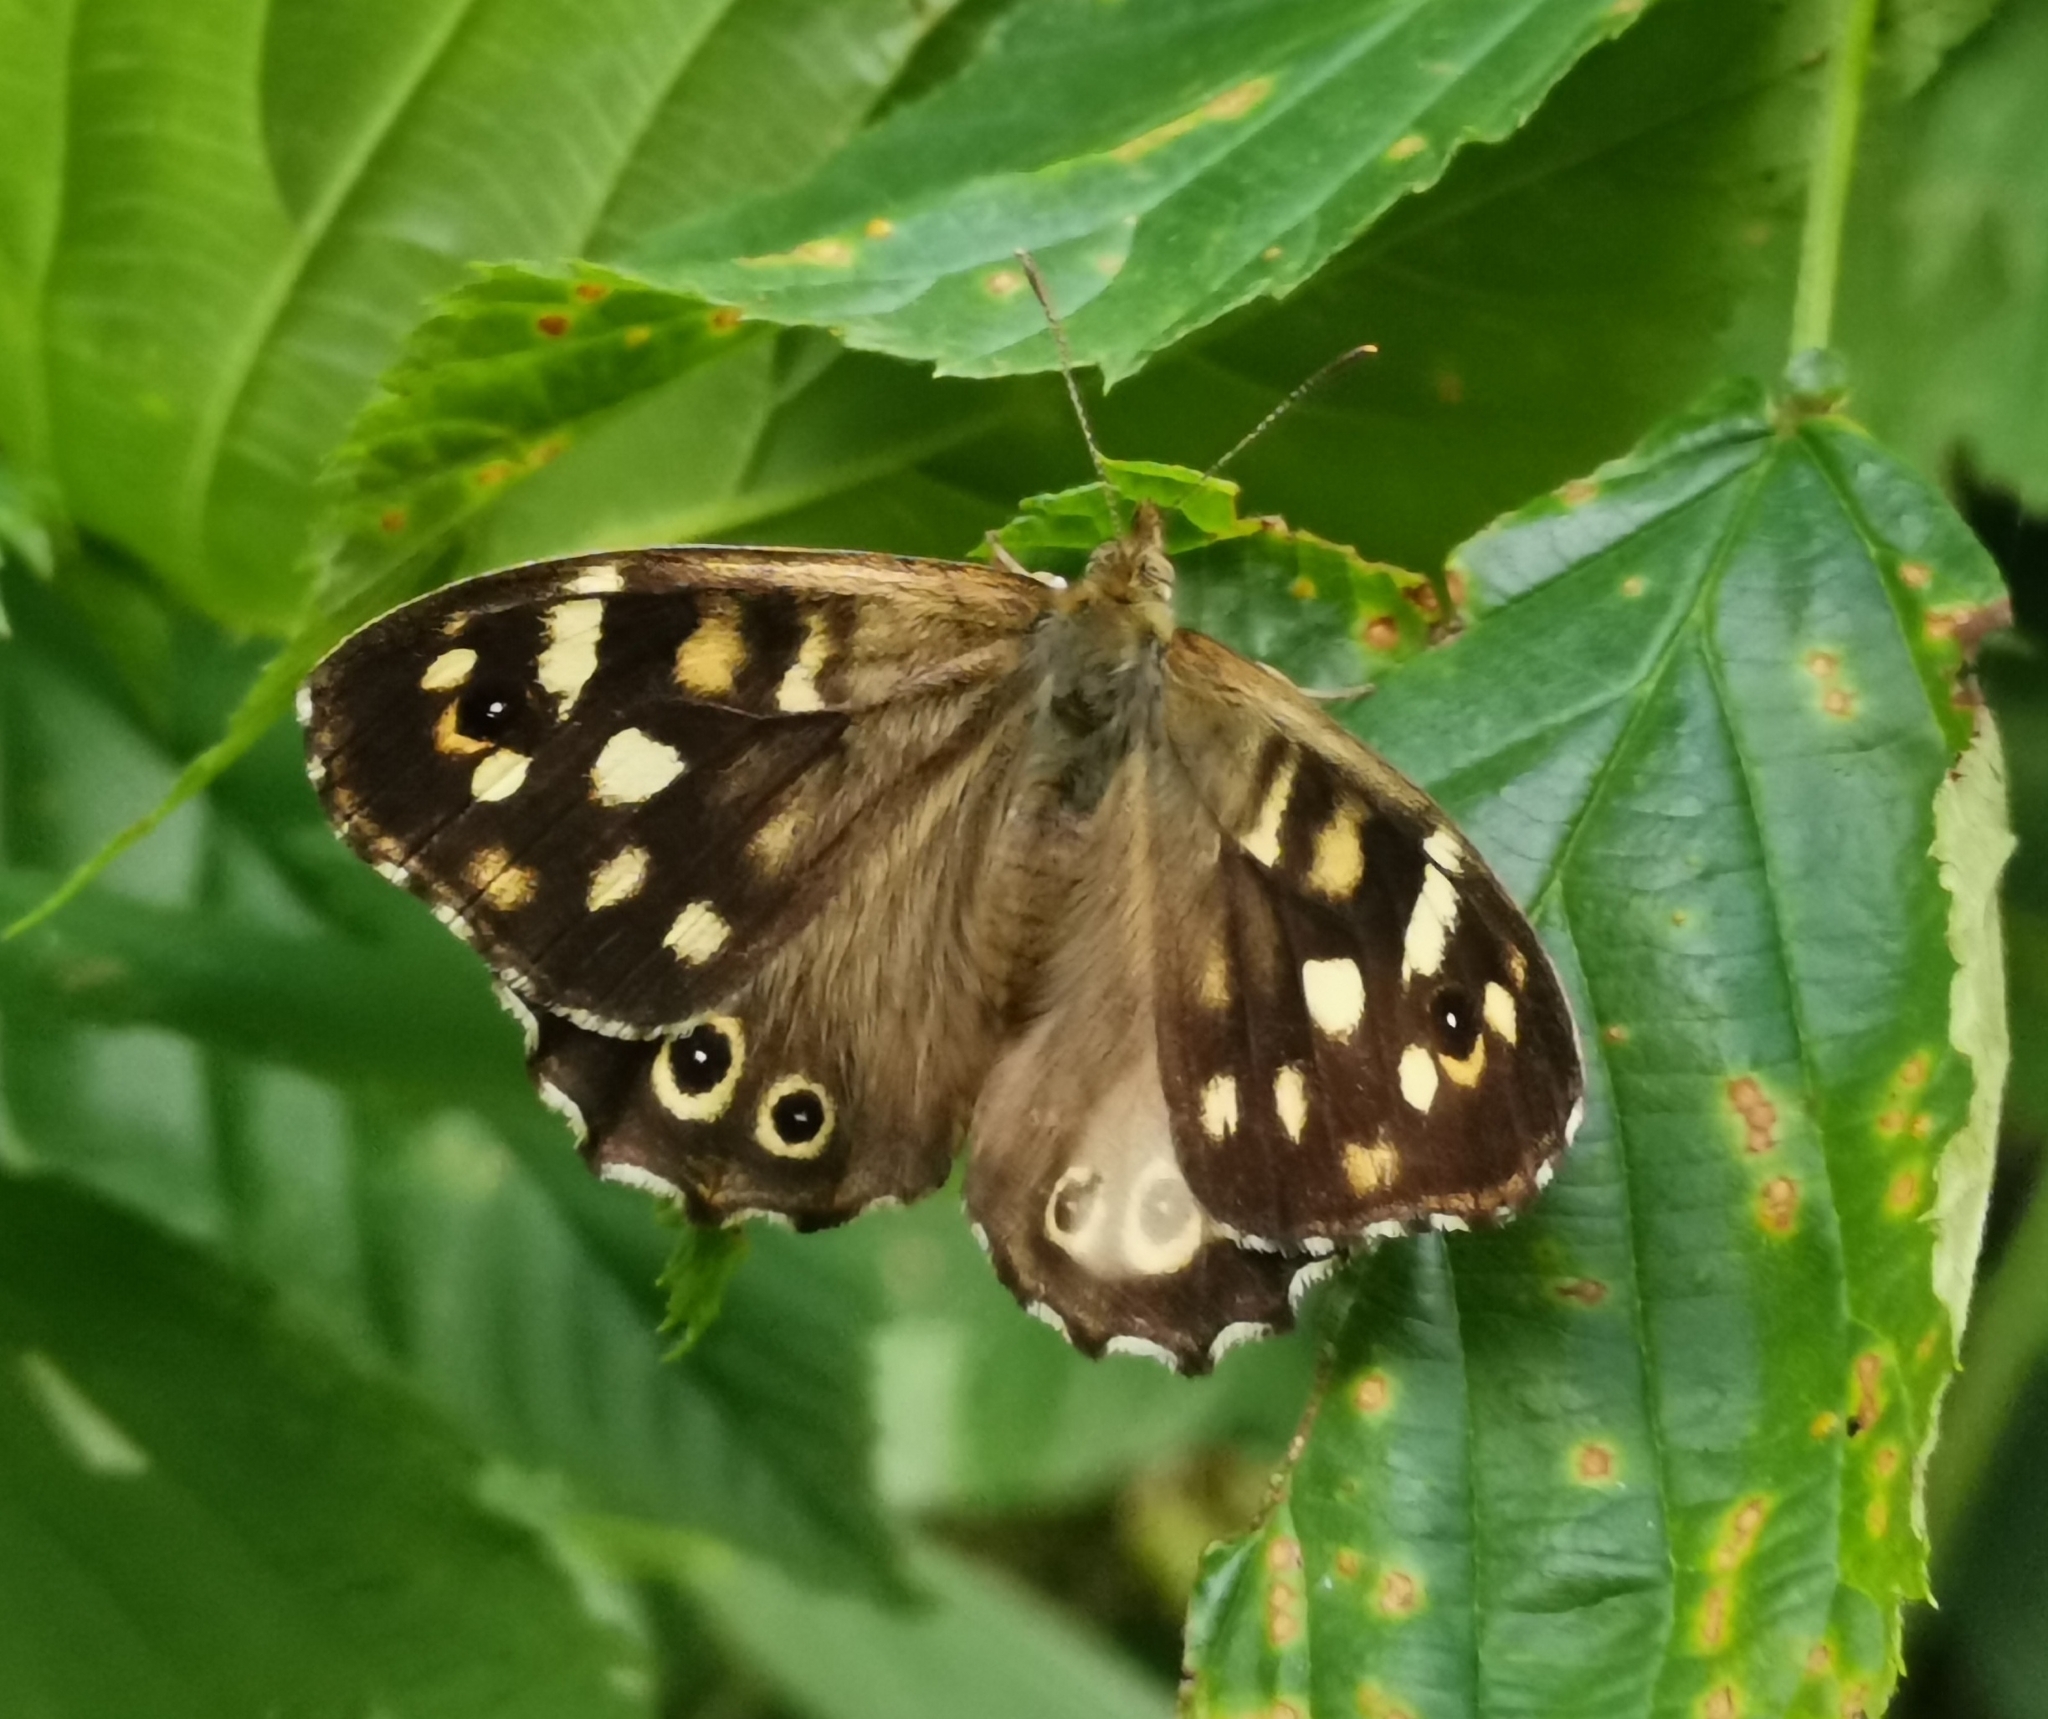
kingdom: Animalia
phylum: Arthropoda
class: Insecta
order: Lepidoptera
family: Nymphalidae
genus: Pararge
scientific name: Pararge aegeria
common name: Speckled wood
